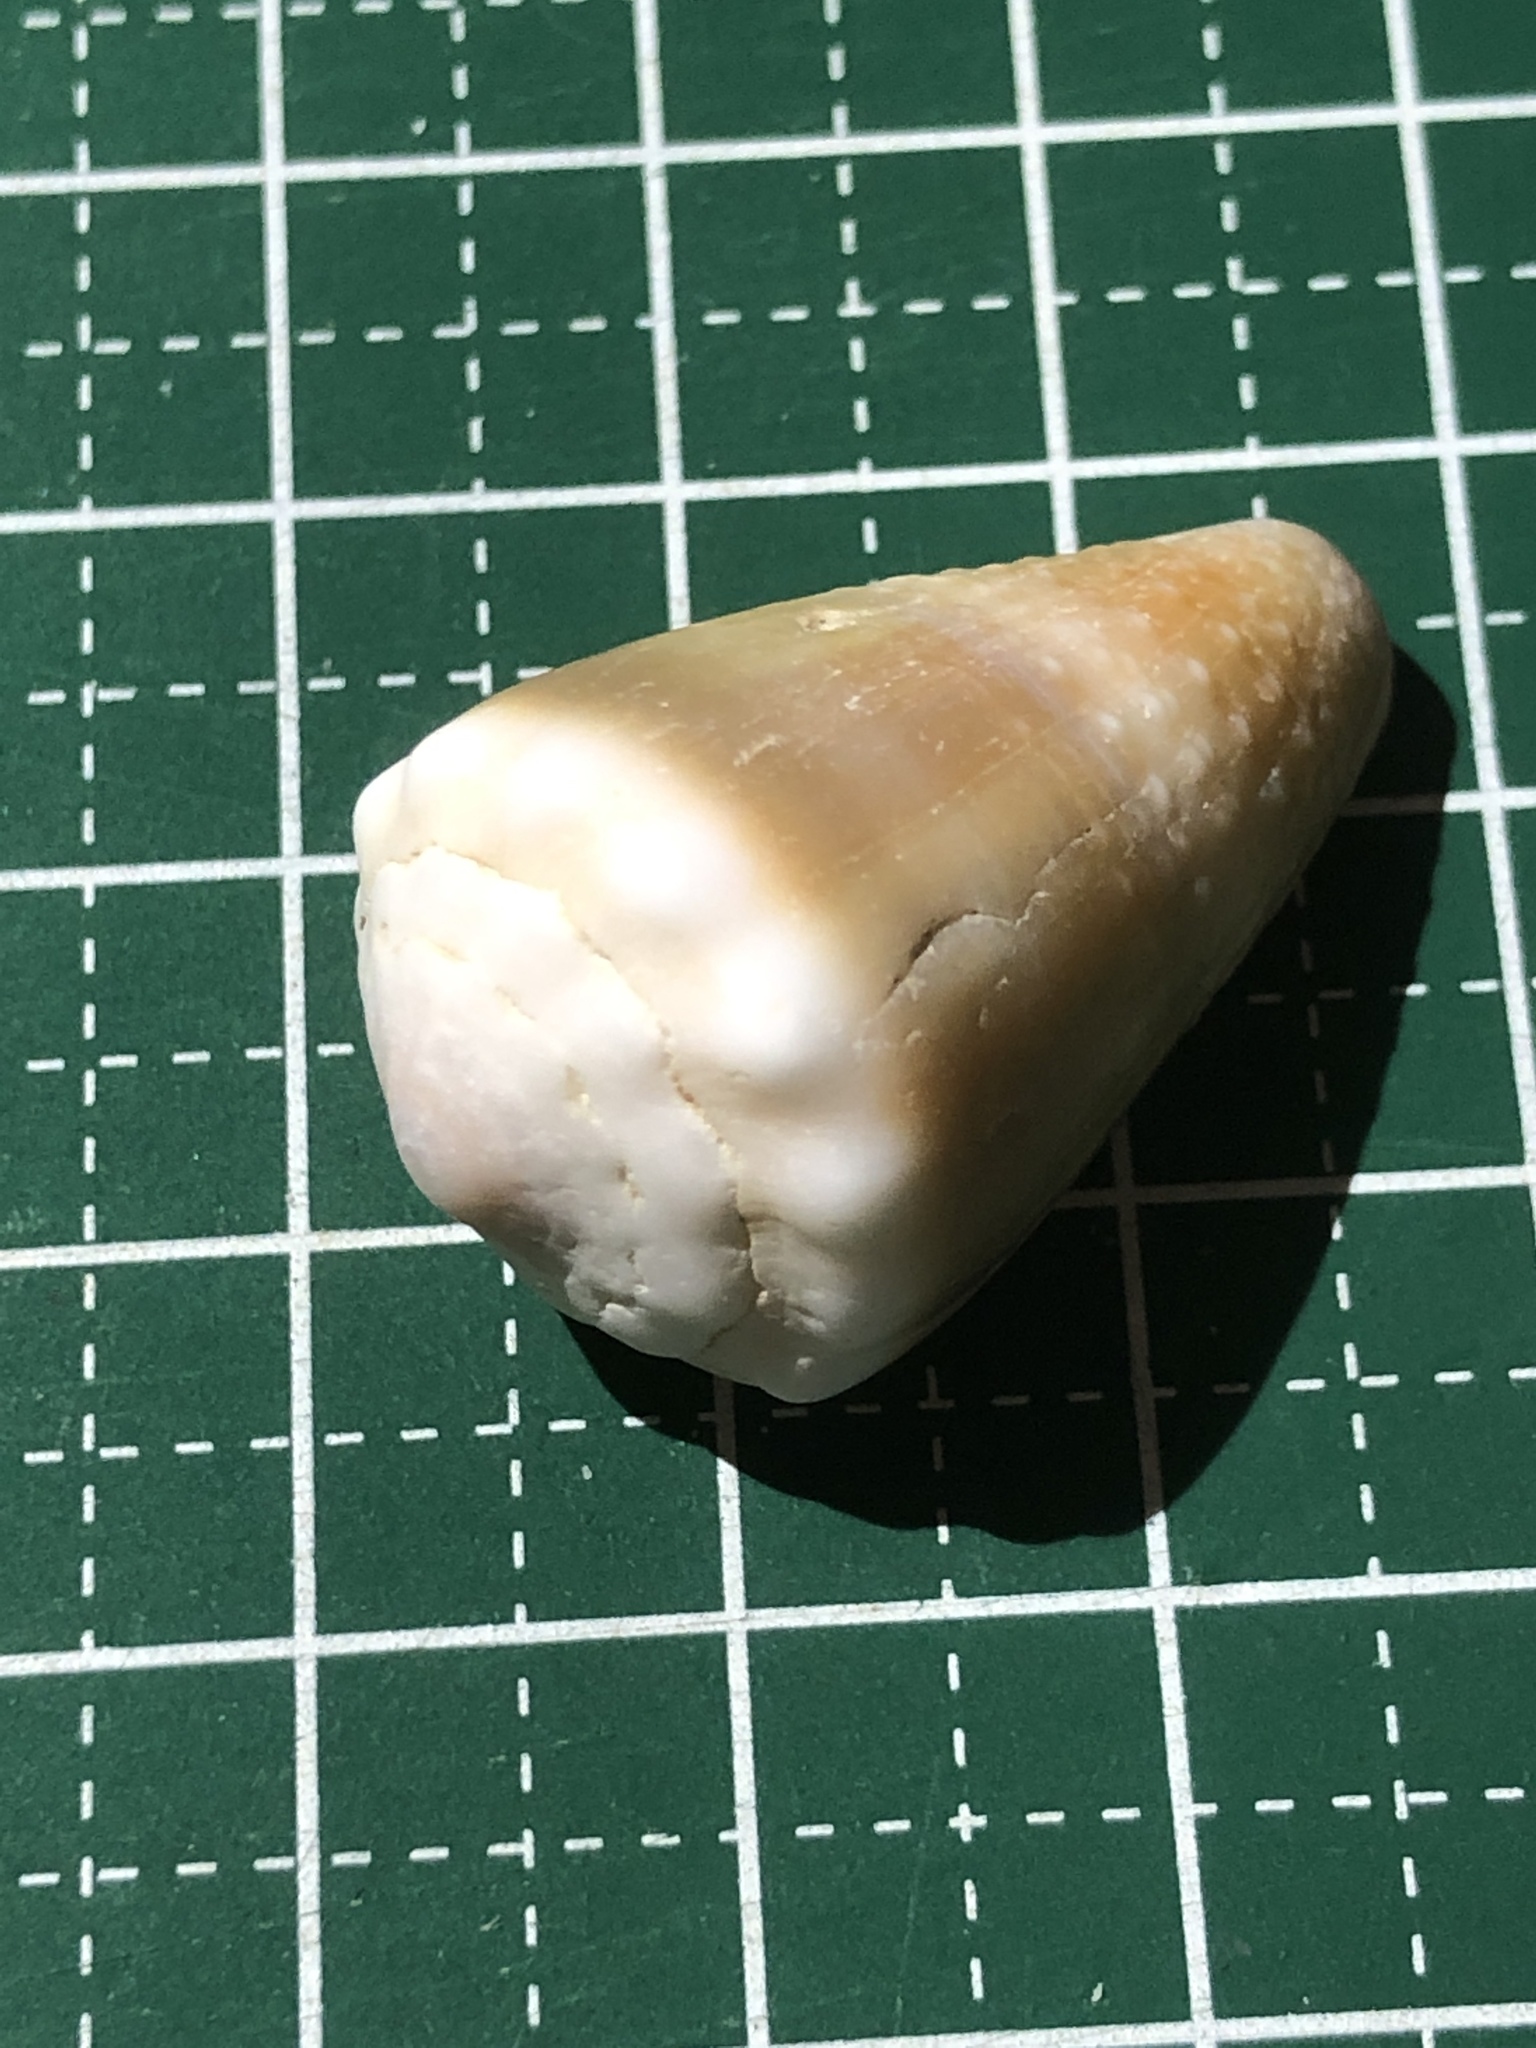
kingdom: Animalia
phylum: Mollusca
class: Gastropoda
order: Neogastropoda
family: Conidae
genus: Conus
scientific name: Conus lividus
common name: Livid cone
